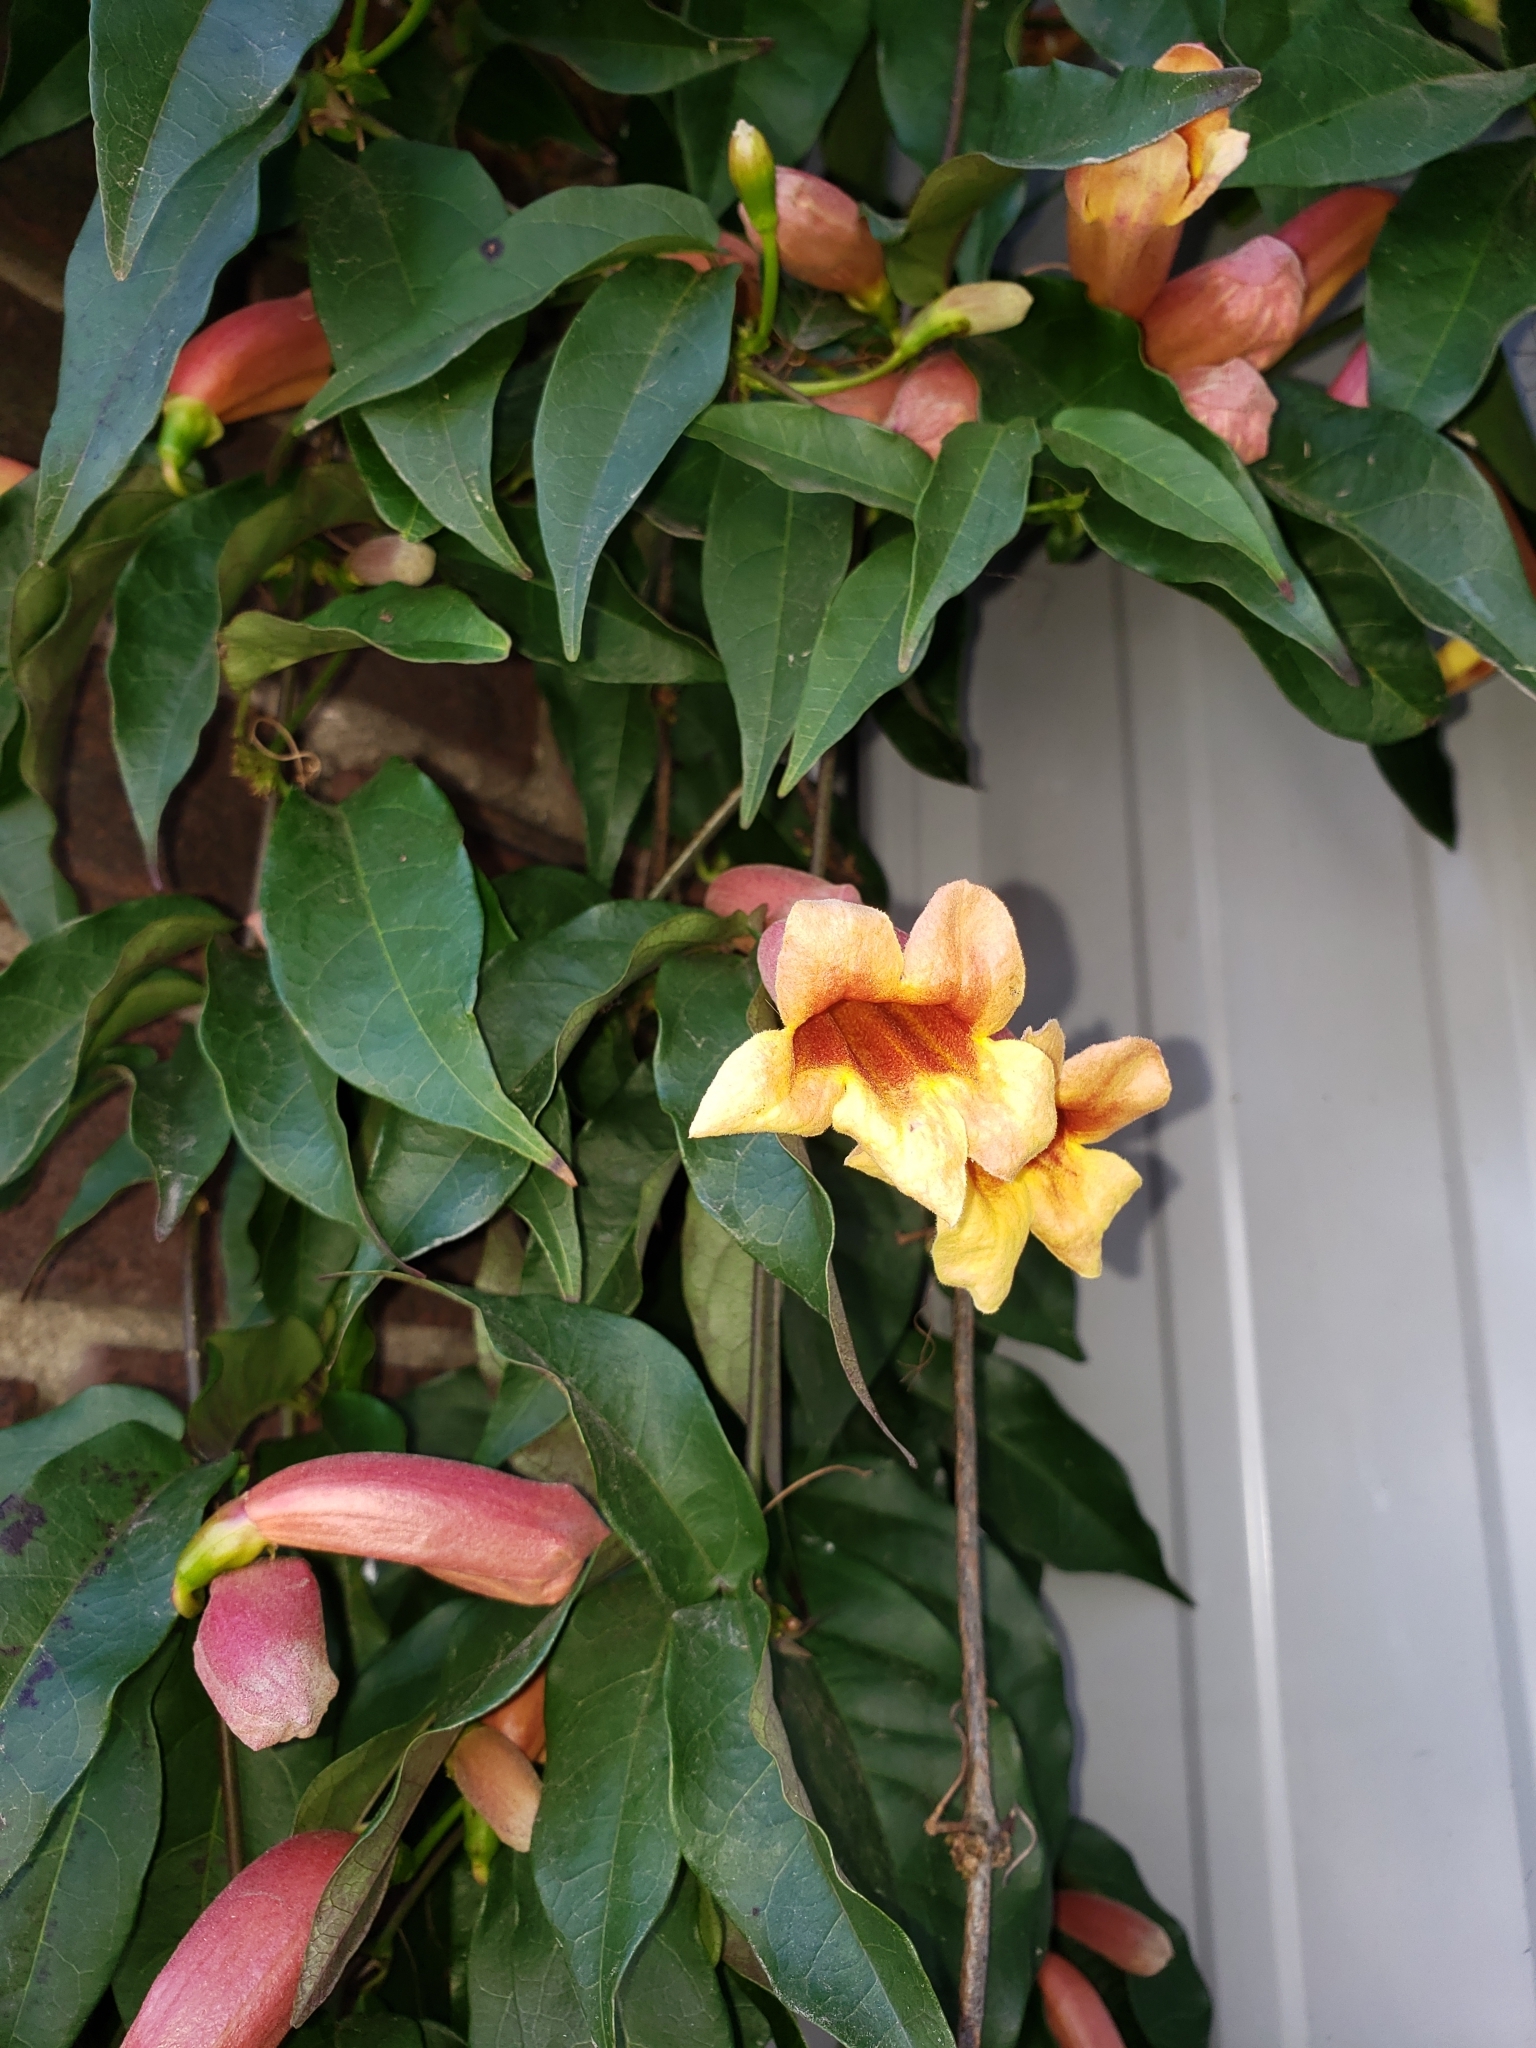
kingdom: Plantae
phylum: Tracheophyta
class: Magnoliopsida
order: Lamiales
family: Bignoniaceae
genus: Bignonia
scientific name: Bignonia capreolata
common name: Crossvine
